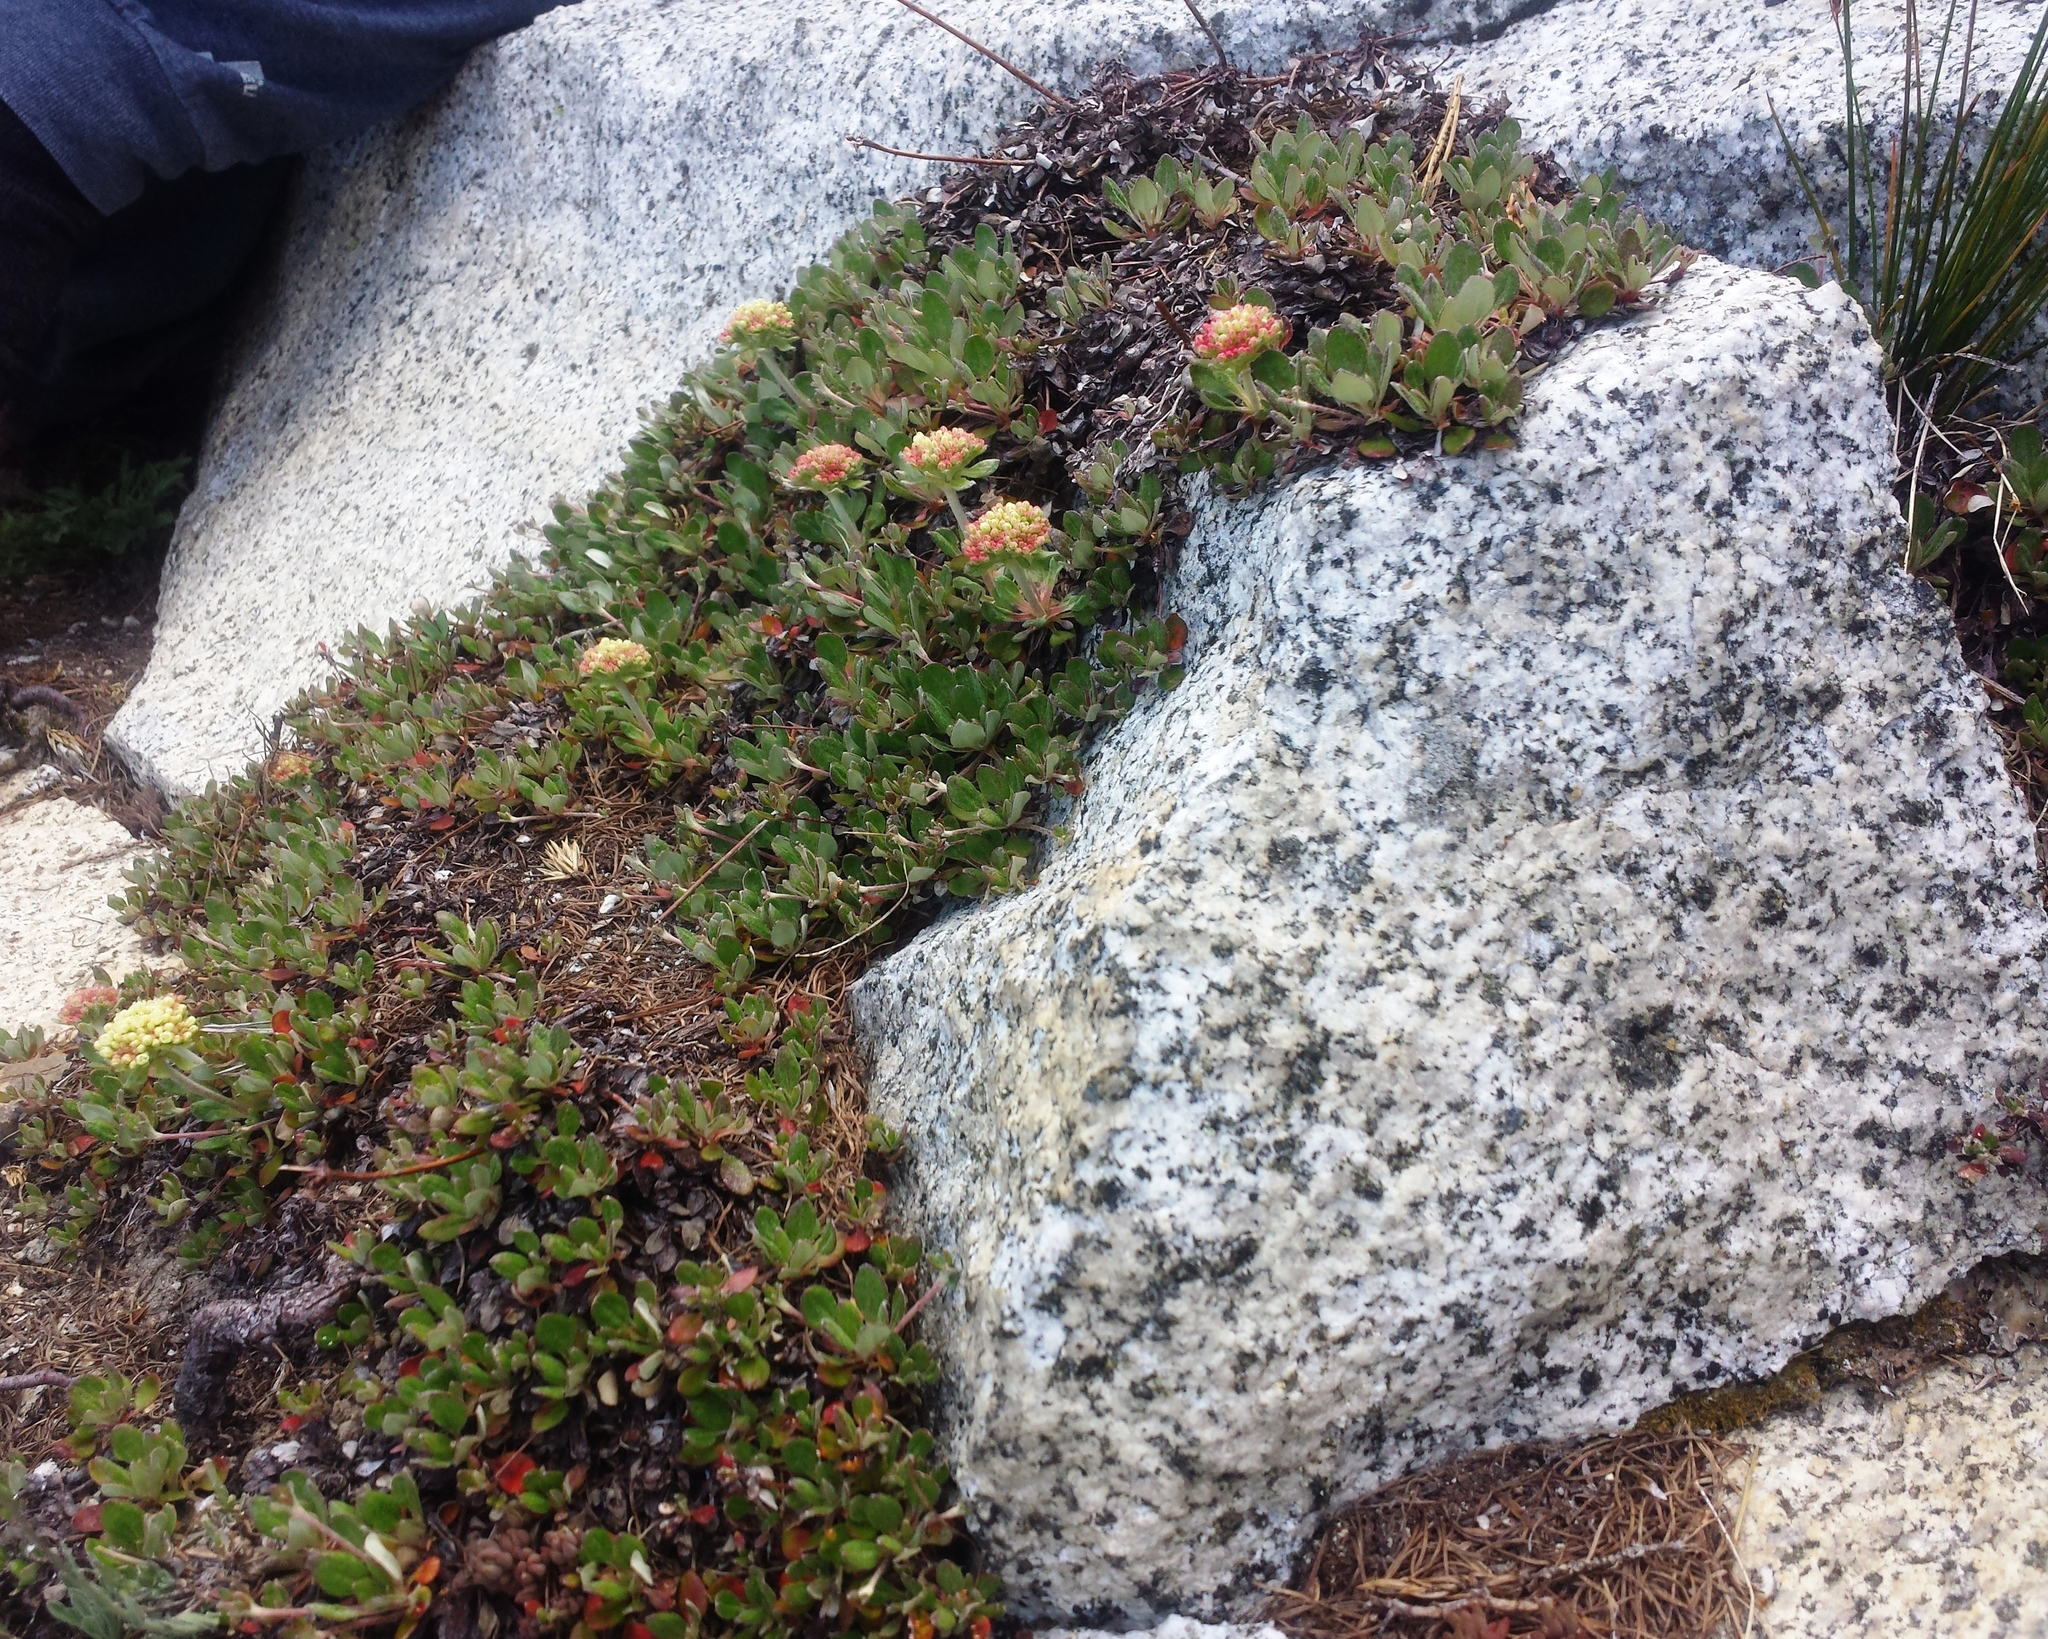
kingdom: Plantae
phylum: Tracheophyta
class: Magnoliopsida
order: Caryophyllales
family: Polygonaceae
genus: Eriogonum
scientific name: Eriogonum umbellatum
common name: Sulfur-buckwheat
